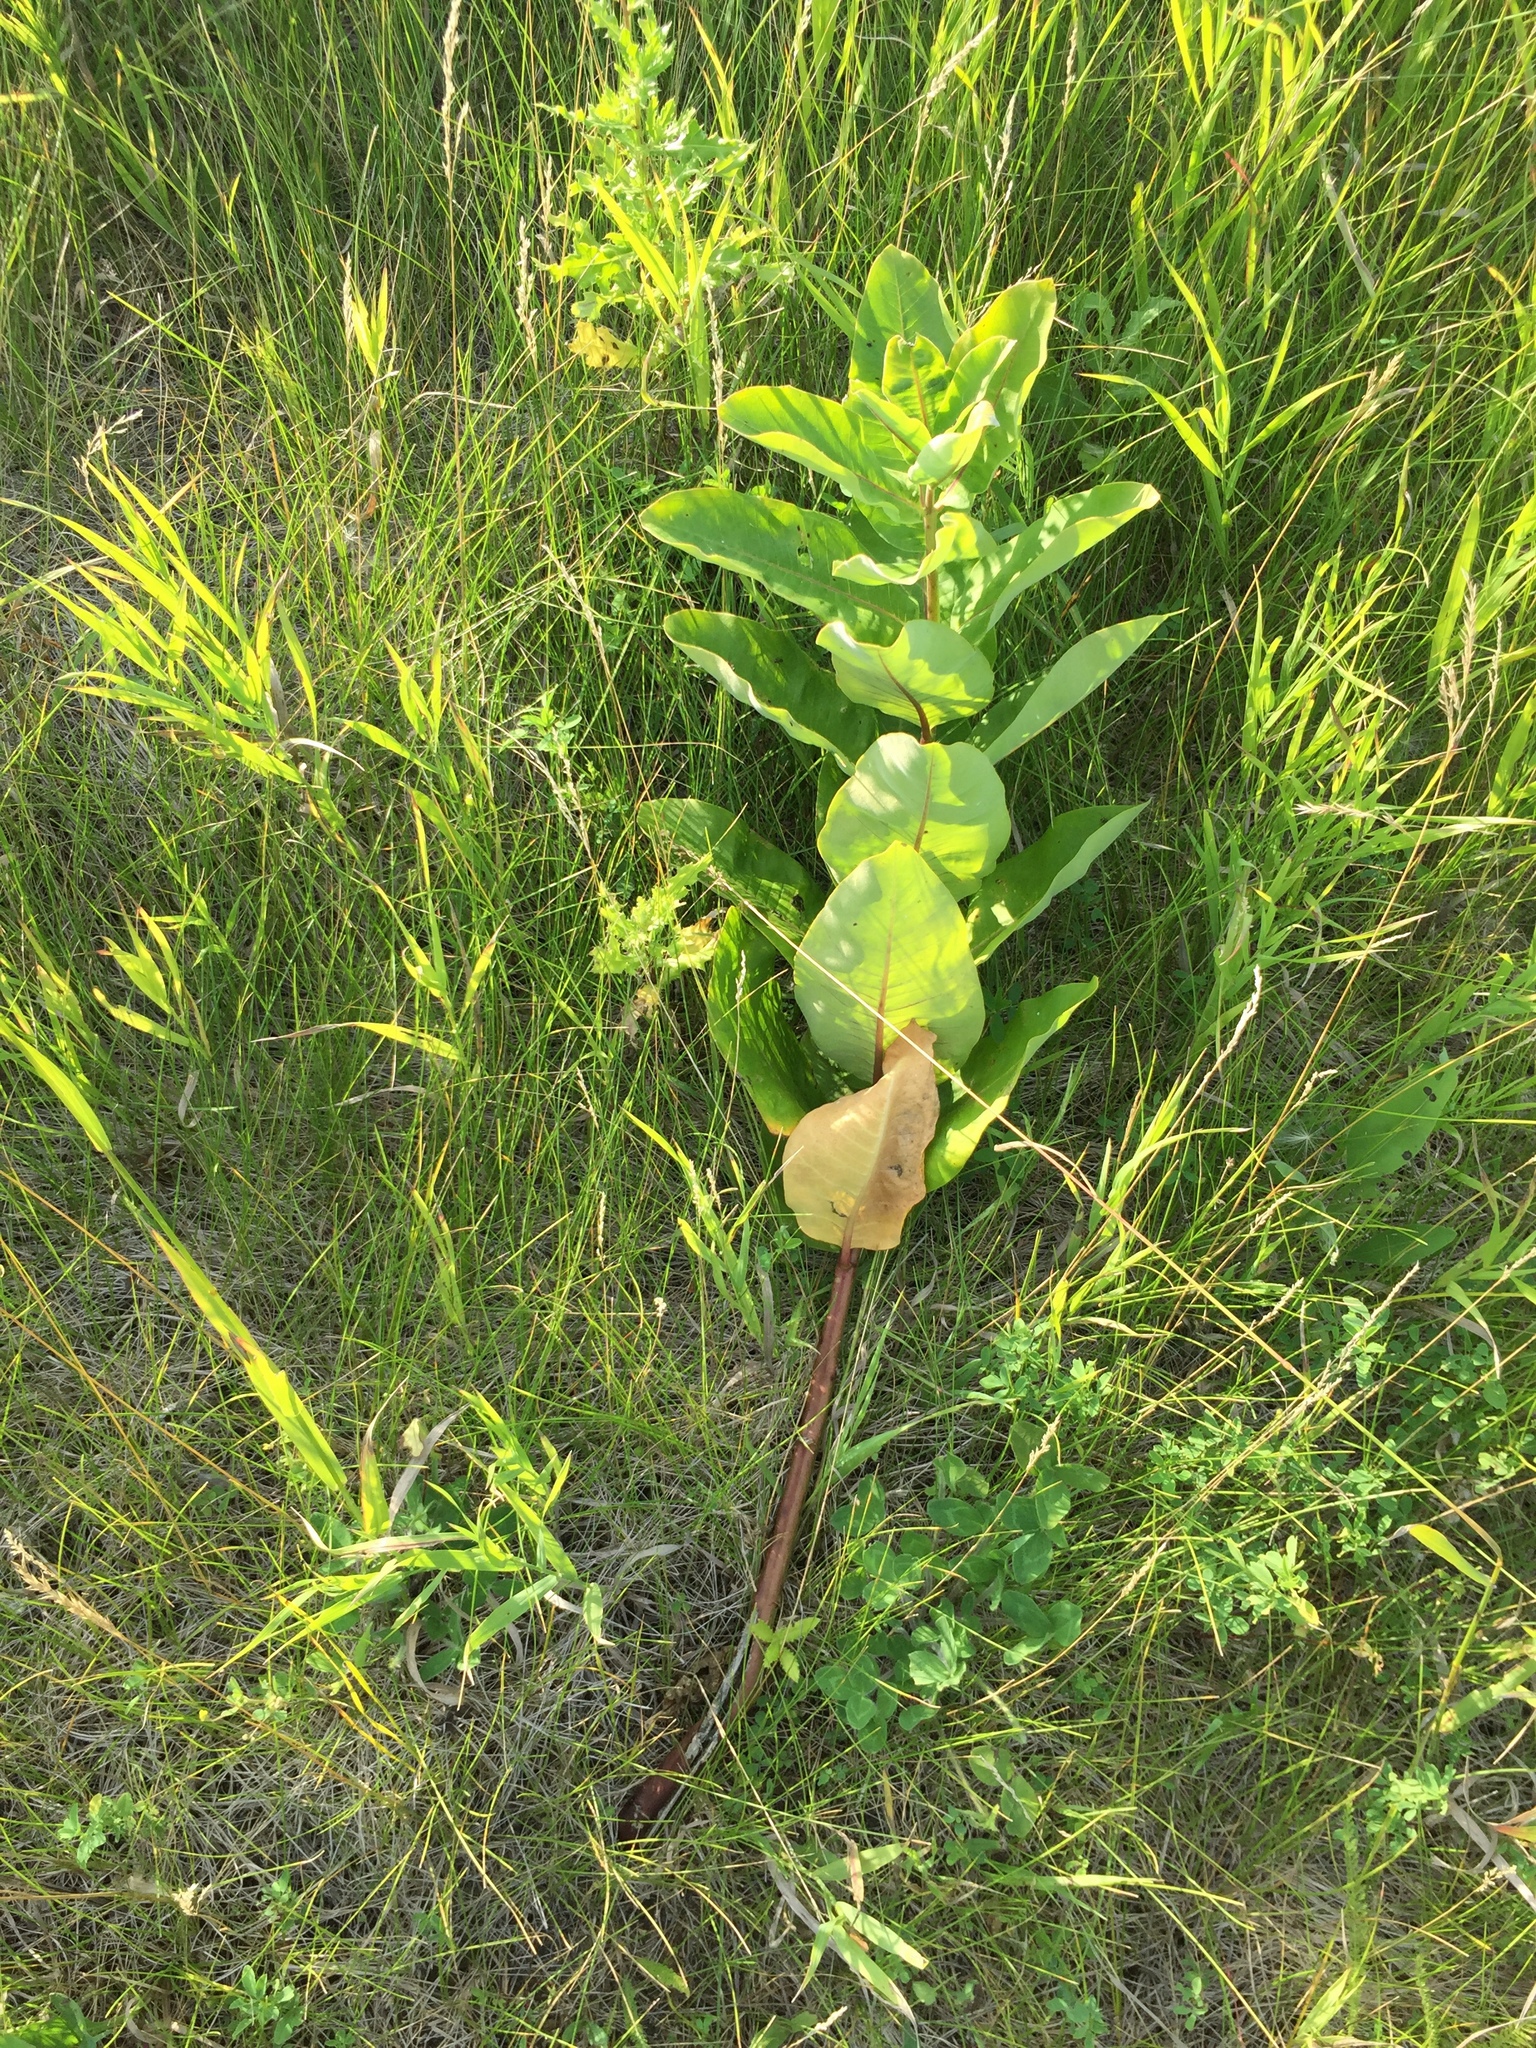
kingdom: Plantae
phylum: Tracheophyta
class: Magnoliopsida
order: Gentianales
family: Apocynaceae
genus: Asclepias
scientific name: Asclepias syriaca
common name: Common milkweed
